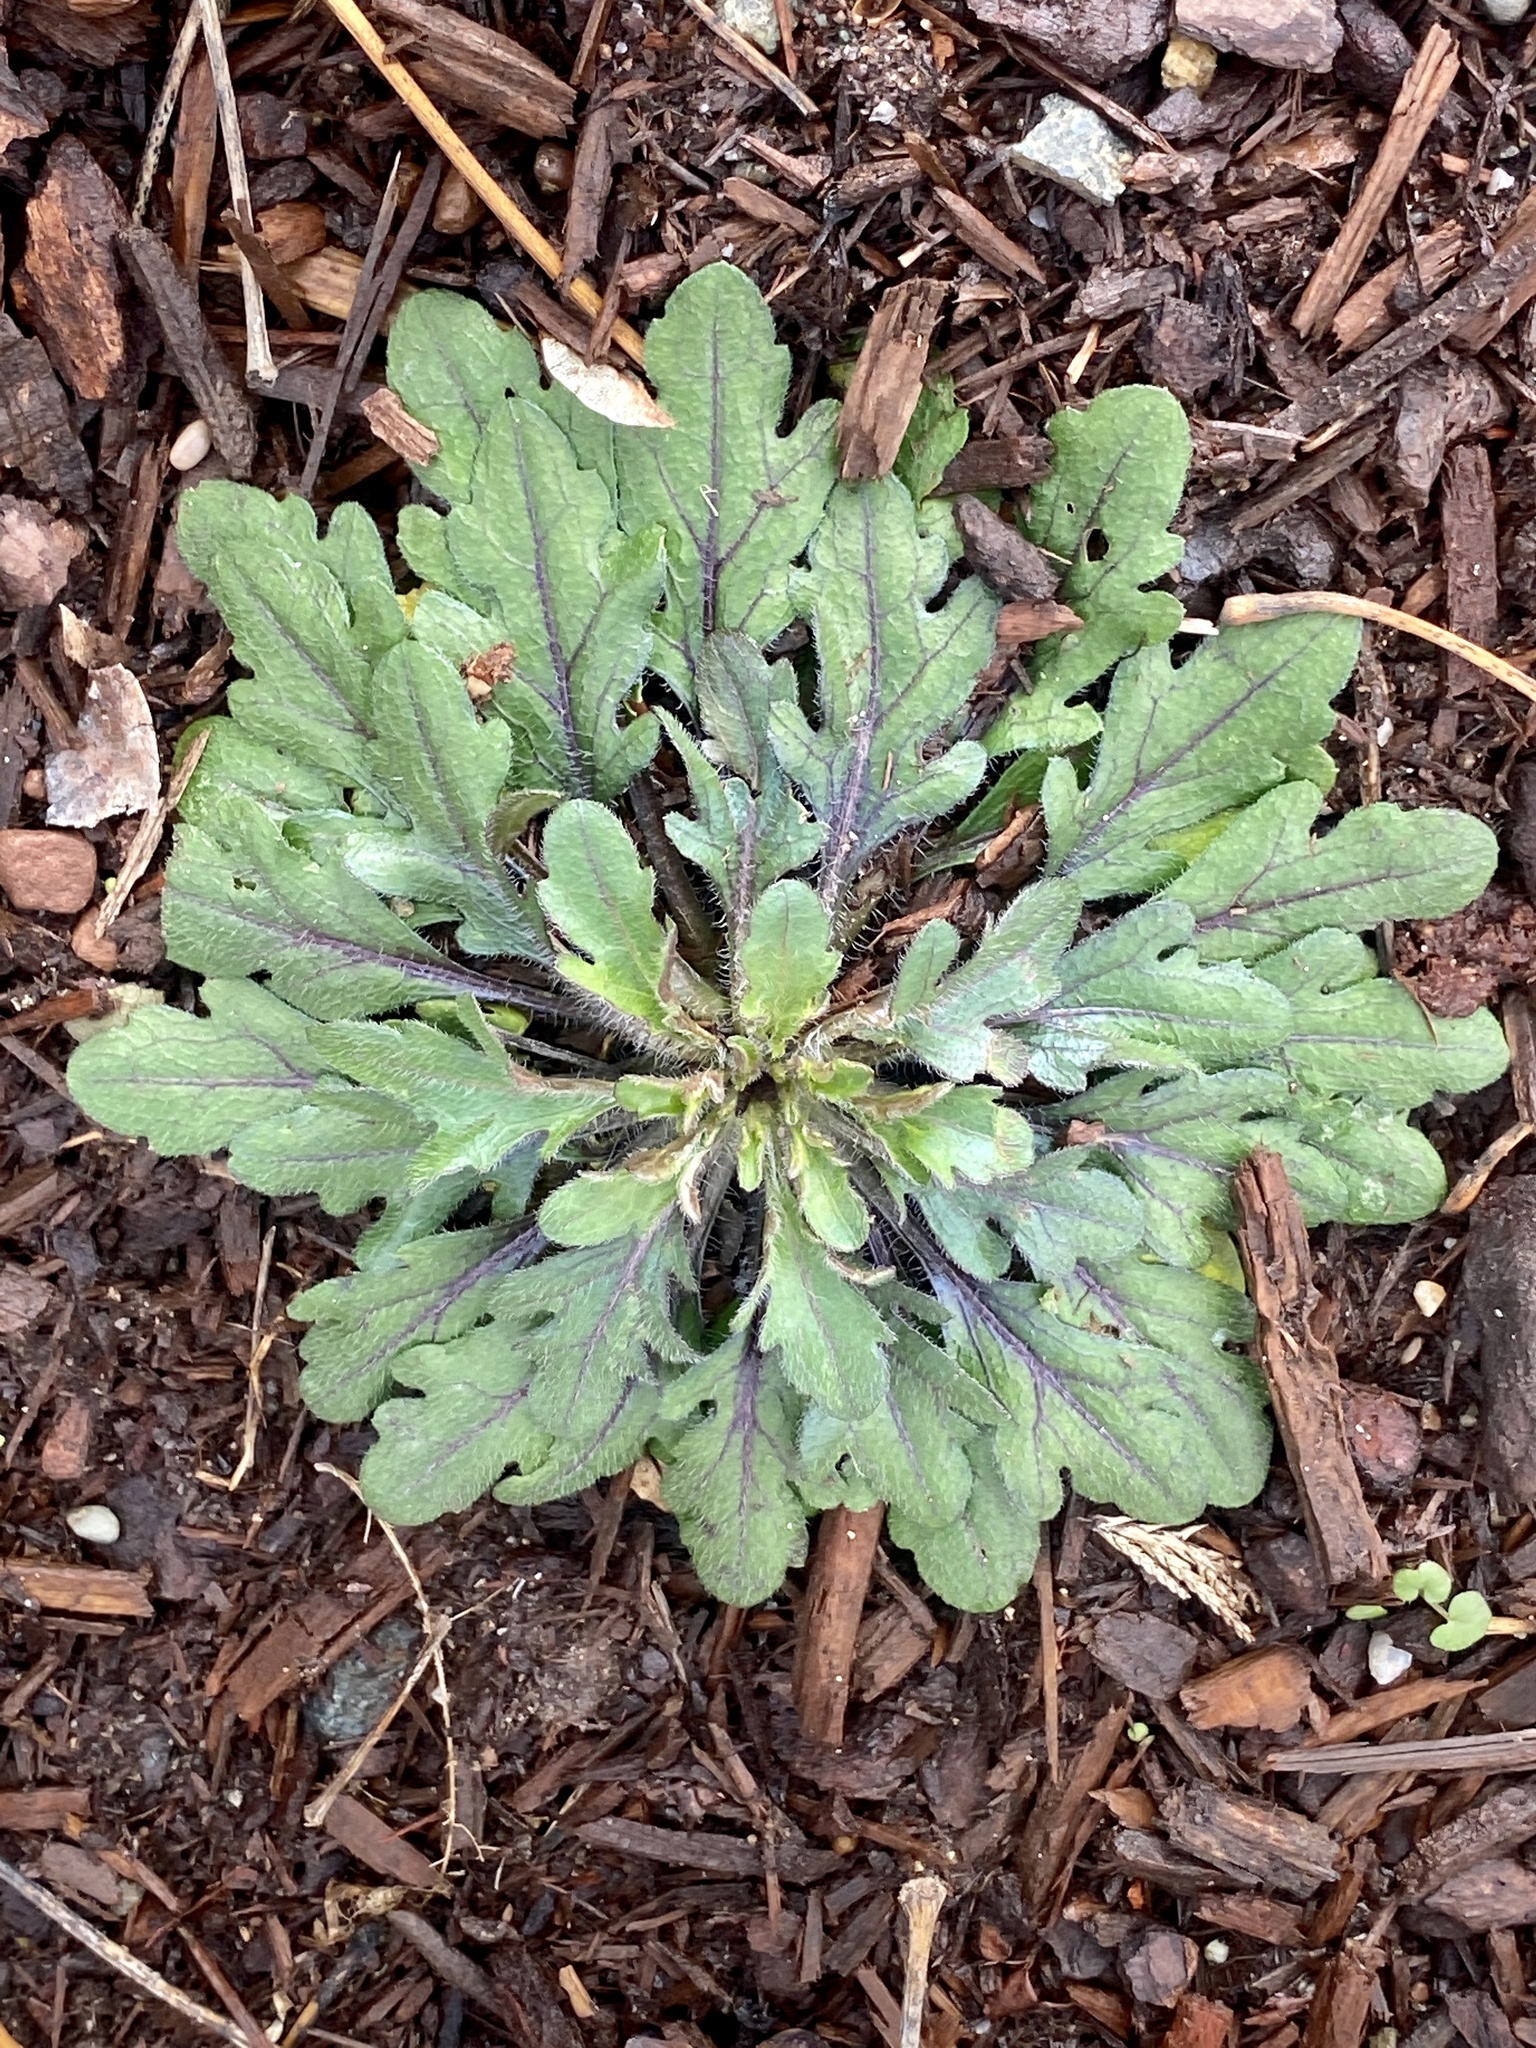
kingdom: Plantae
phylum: Tracheophyta
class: Magnoliopsida
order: Asterales
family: Asteraceae
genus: Erigeron
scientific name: Erigeron canadensis
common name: Canadian fleabane
